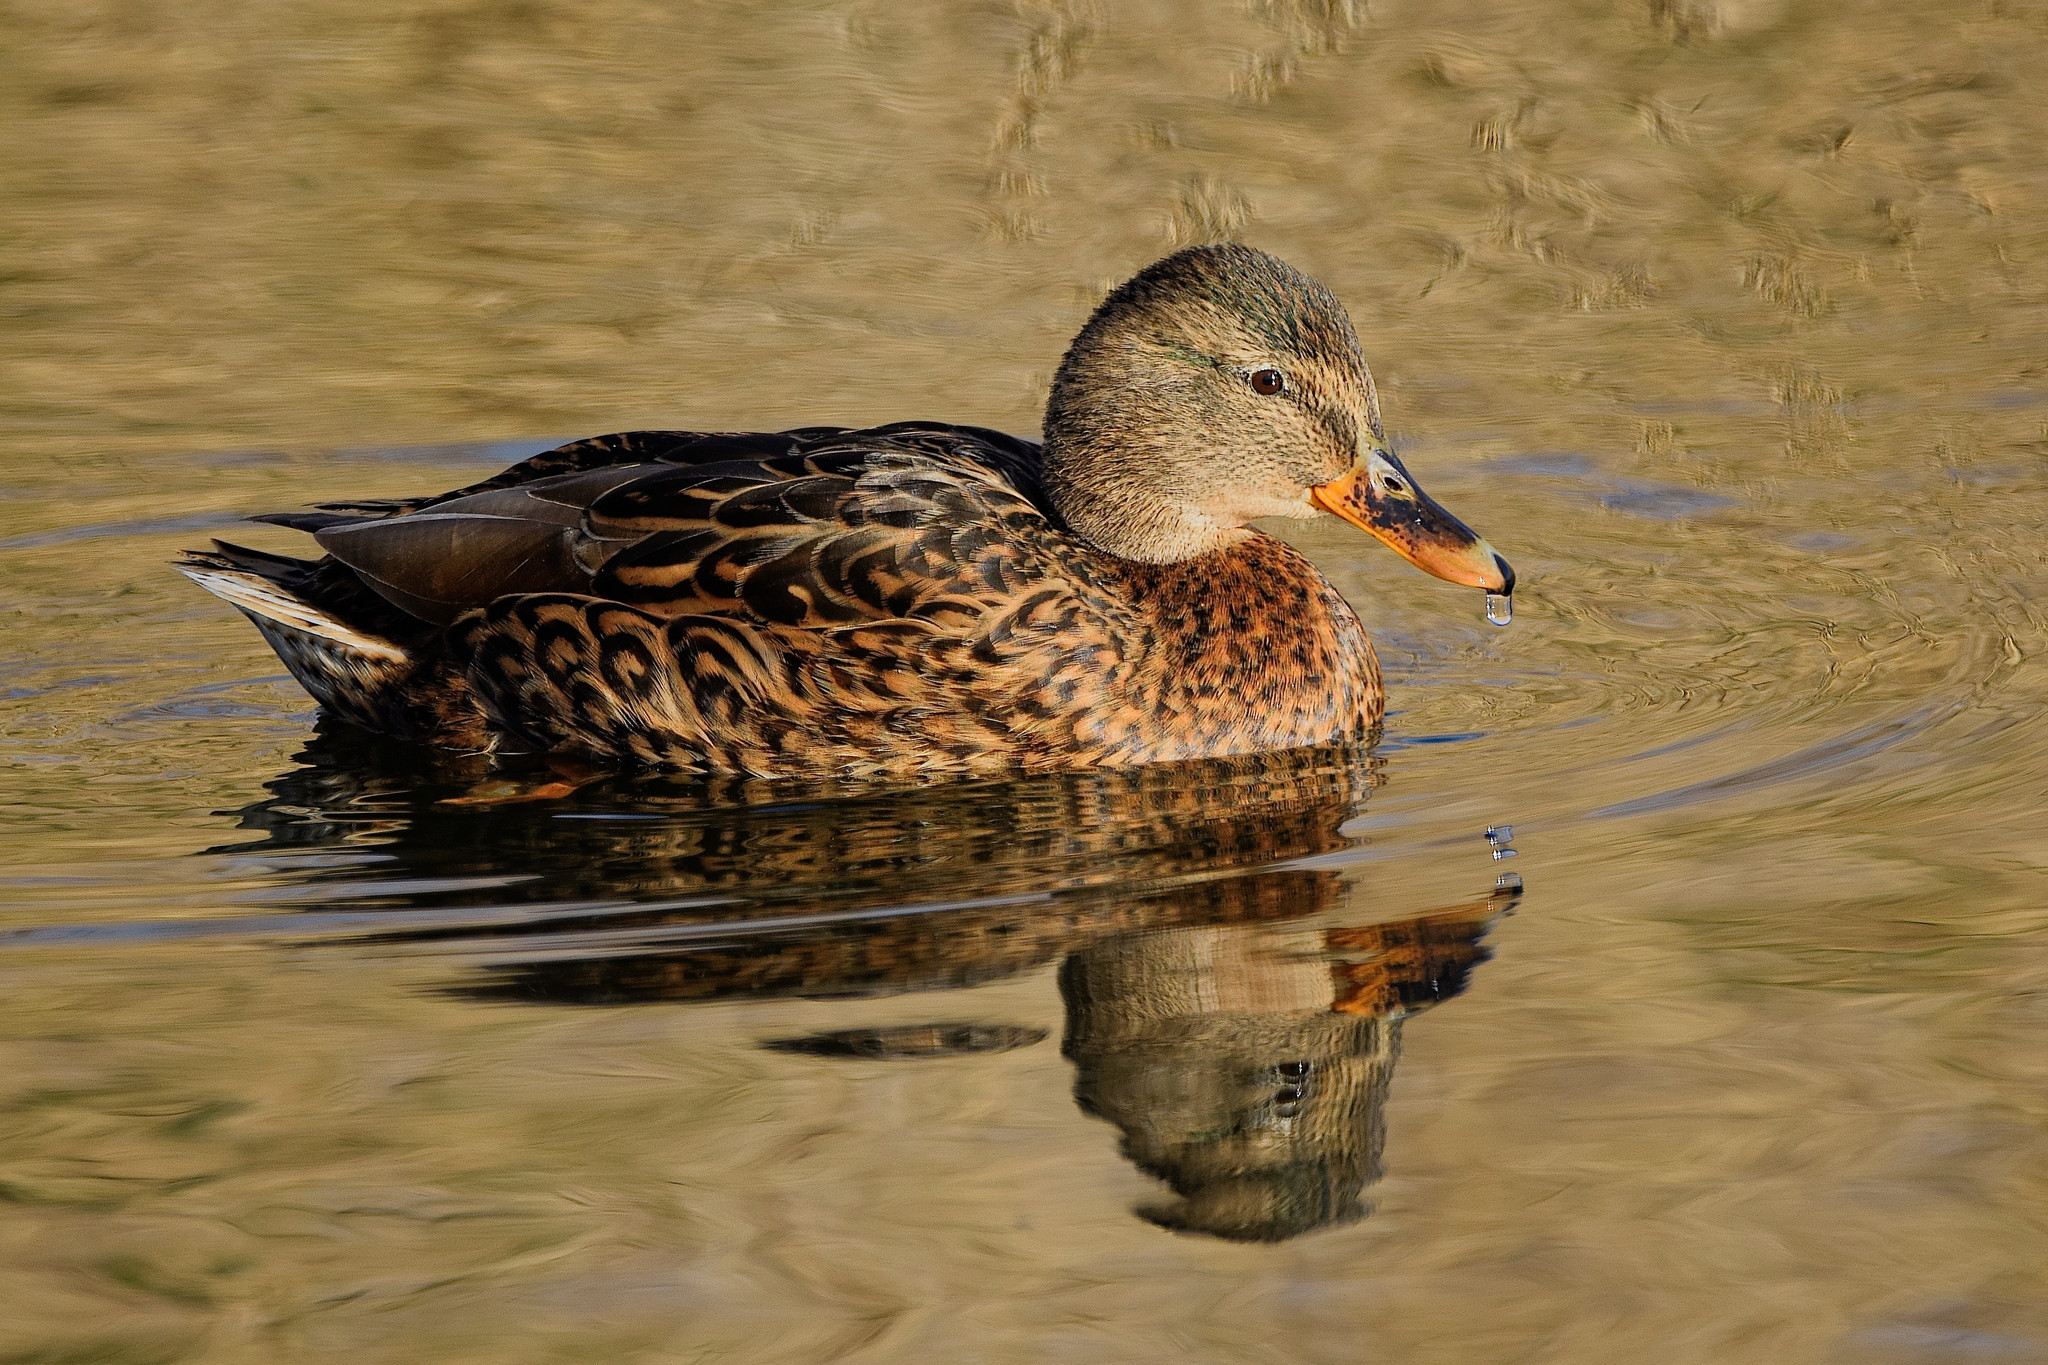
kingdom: Animalia
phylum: Chordata
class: Aves
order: Anseriformes
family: Anatidae
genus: Anas
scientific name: Anas platyrhynchos
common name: Mallard
